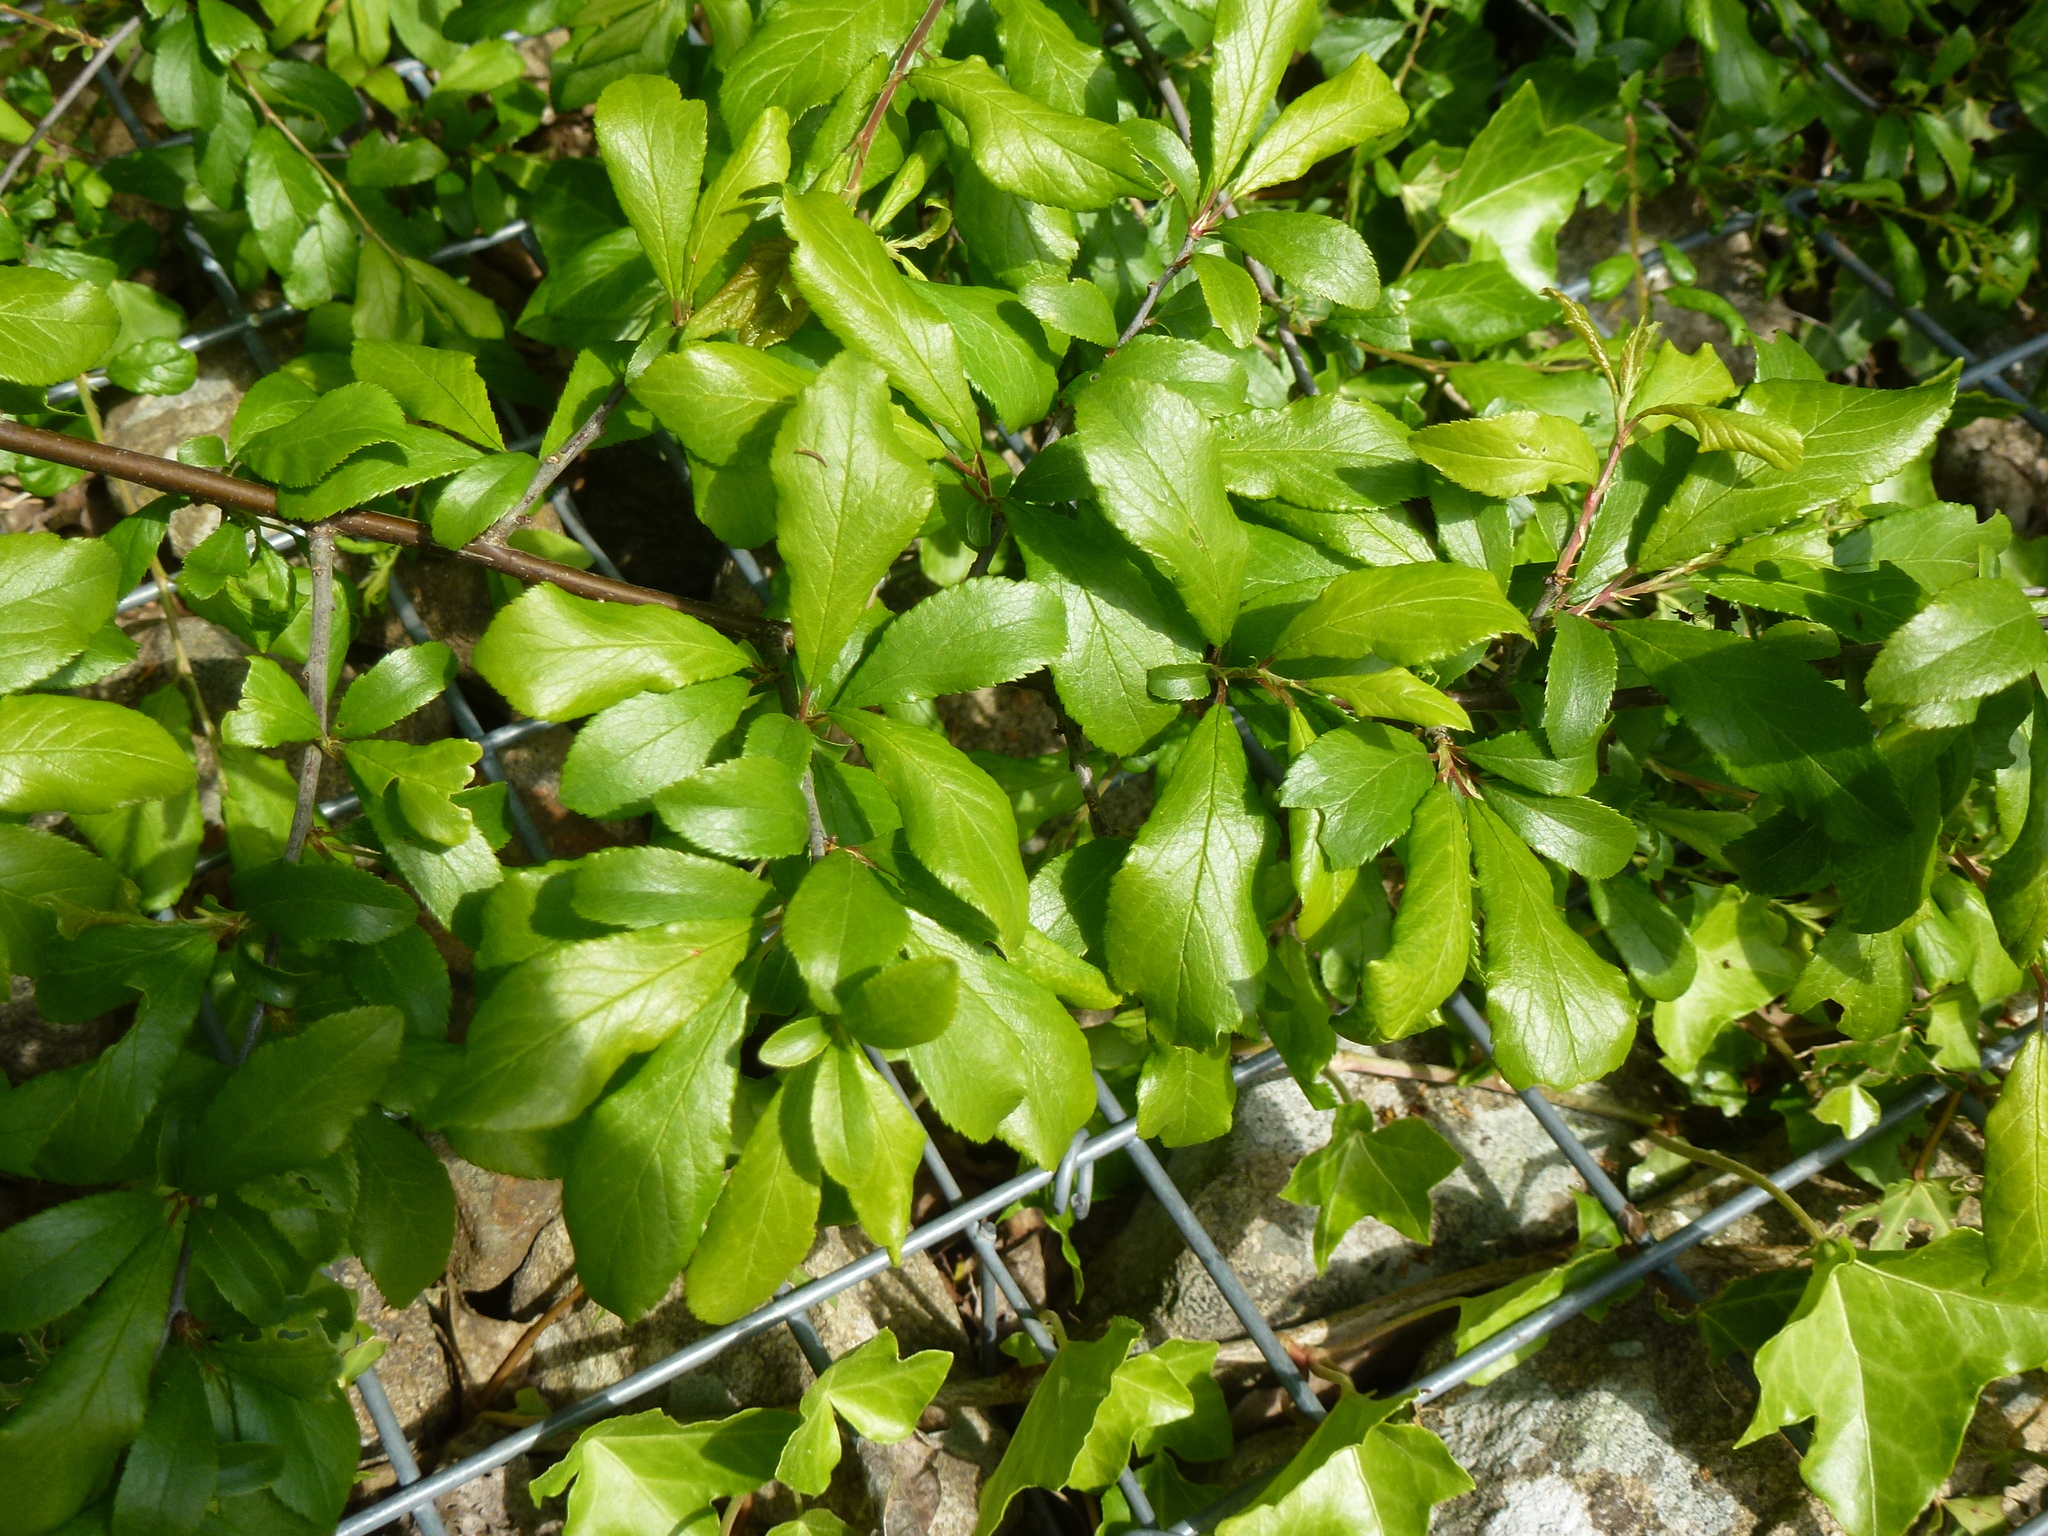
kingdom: Plantae
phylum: Tracheophyta
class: Magnoliopsida
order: Rosales
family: Rosaceae
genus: Prunus
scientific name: Prunus spinosa
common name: Blackthorn
